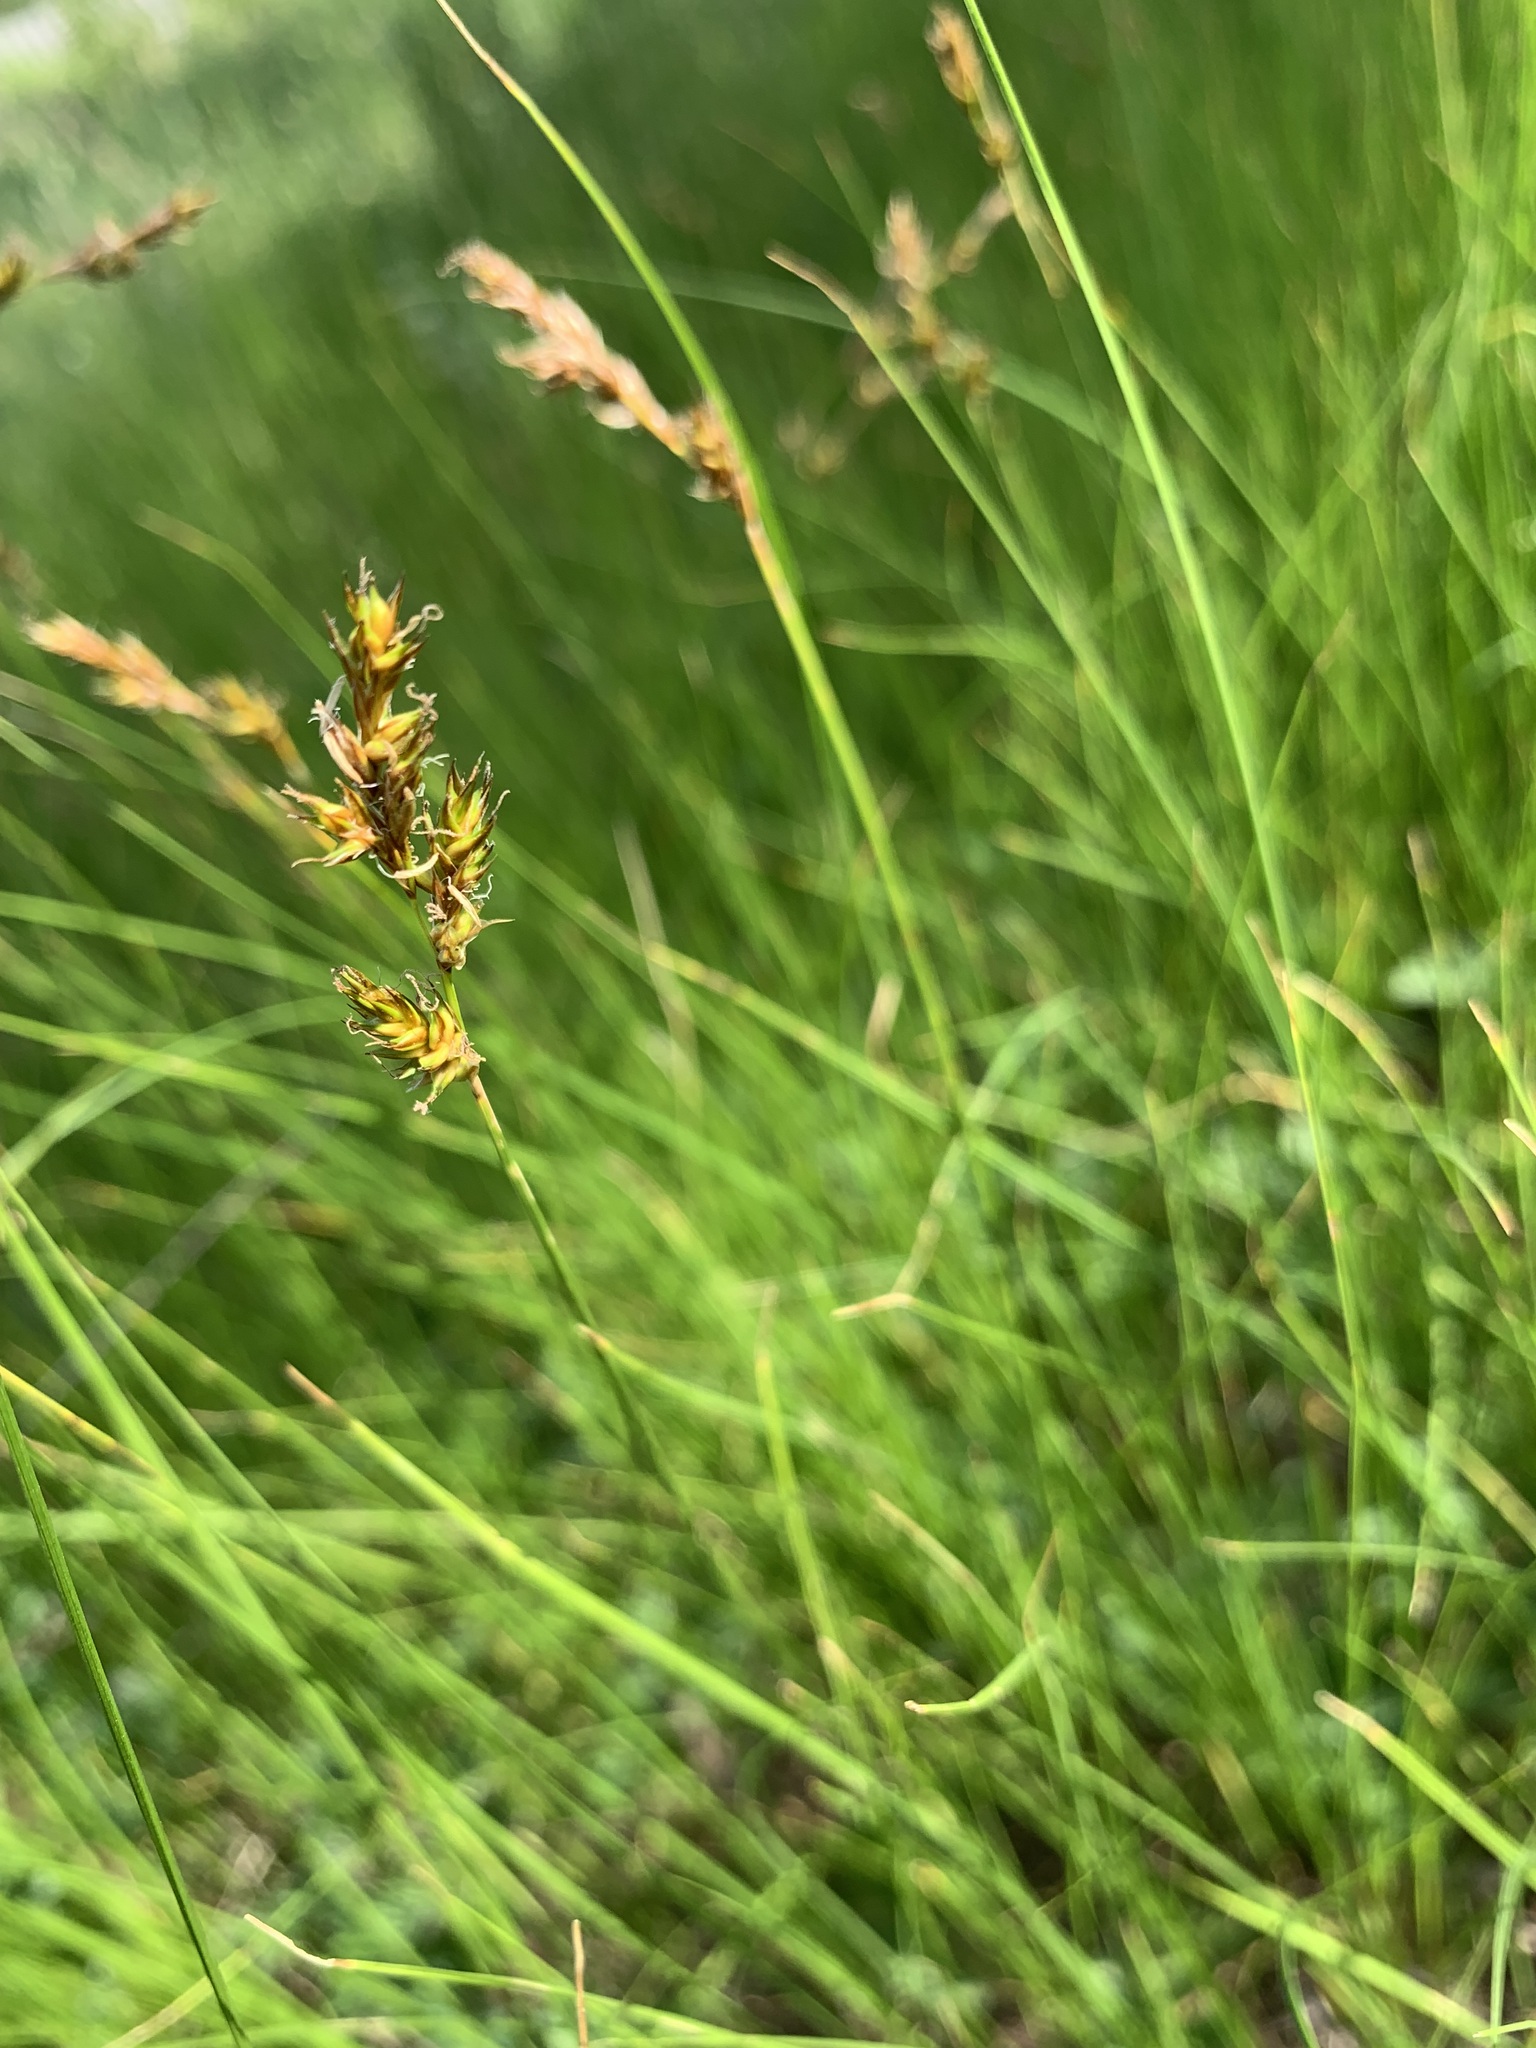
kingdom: Plantae
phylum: Tracheophyta
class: Liliopsida
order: Poales
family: Cyperaceae
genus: Carex
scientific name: Carex praecox
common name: Early sedge
